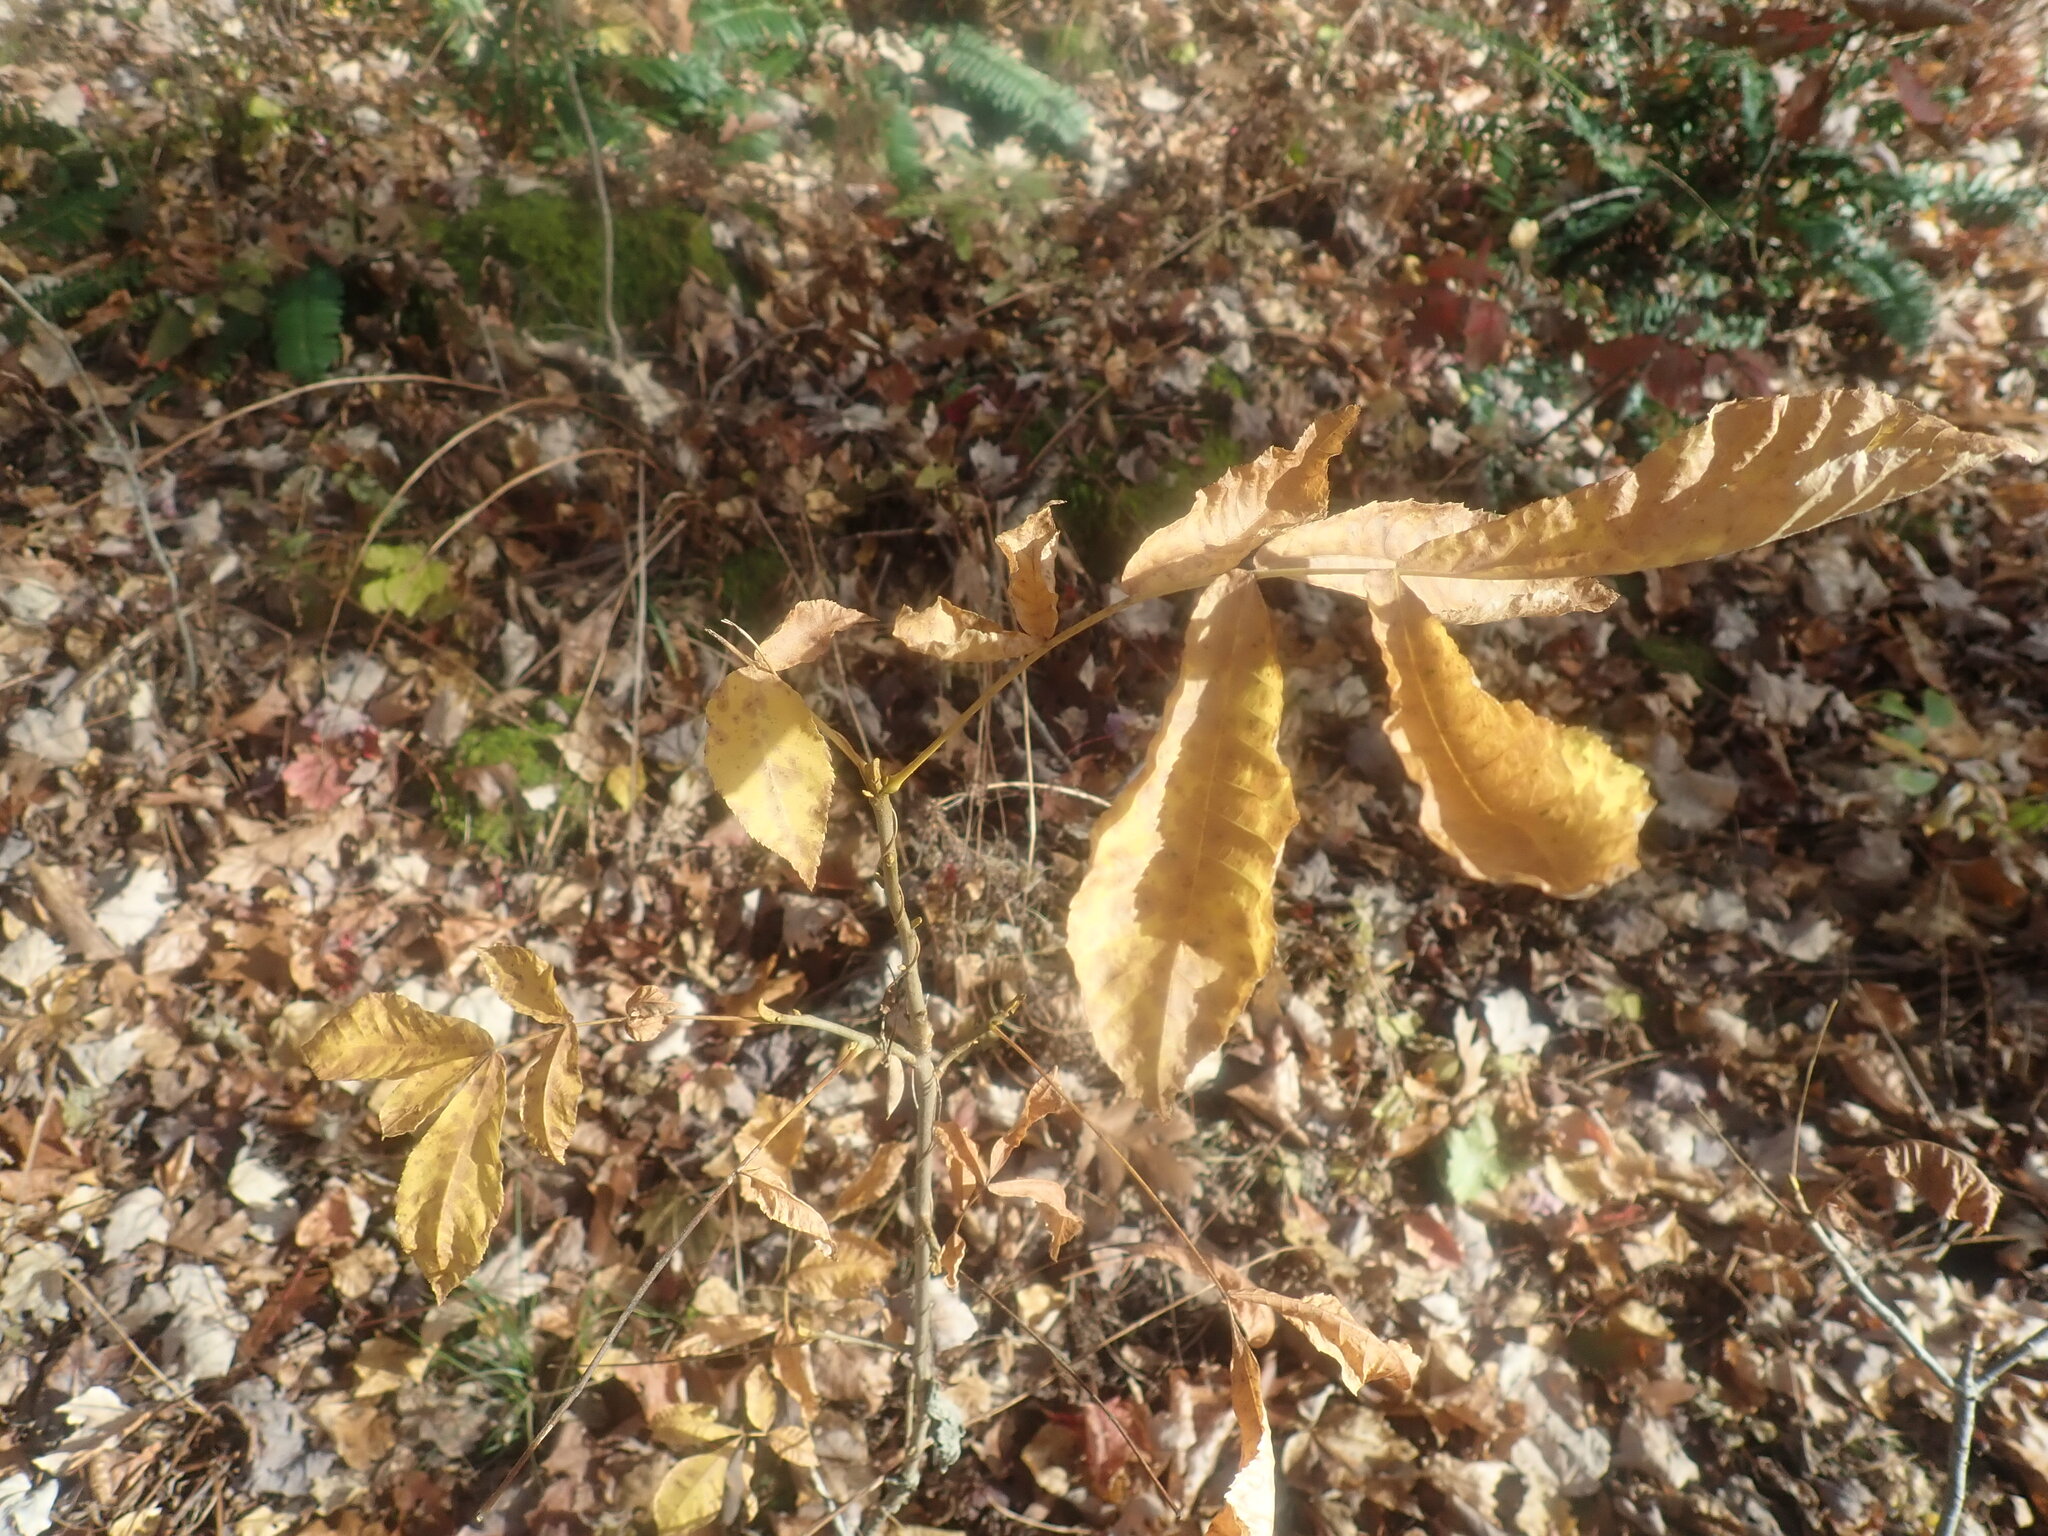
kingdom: Plantae
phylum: Tracheophyta
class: Magnoliopsida
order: Fagales
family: Juglandaceae
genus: Carya
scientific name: Carya cordiformis
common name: Bitternut hickory
